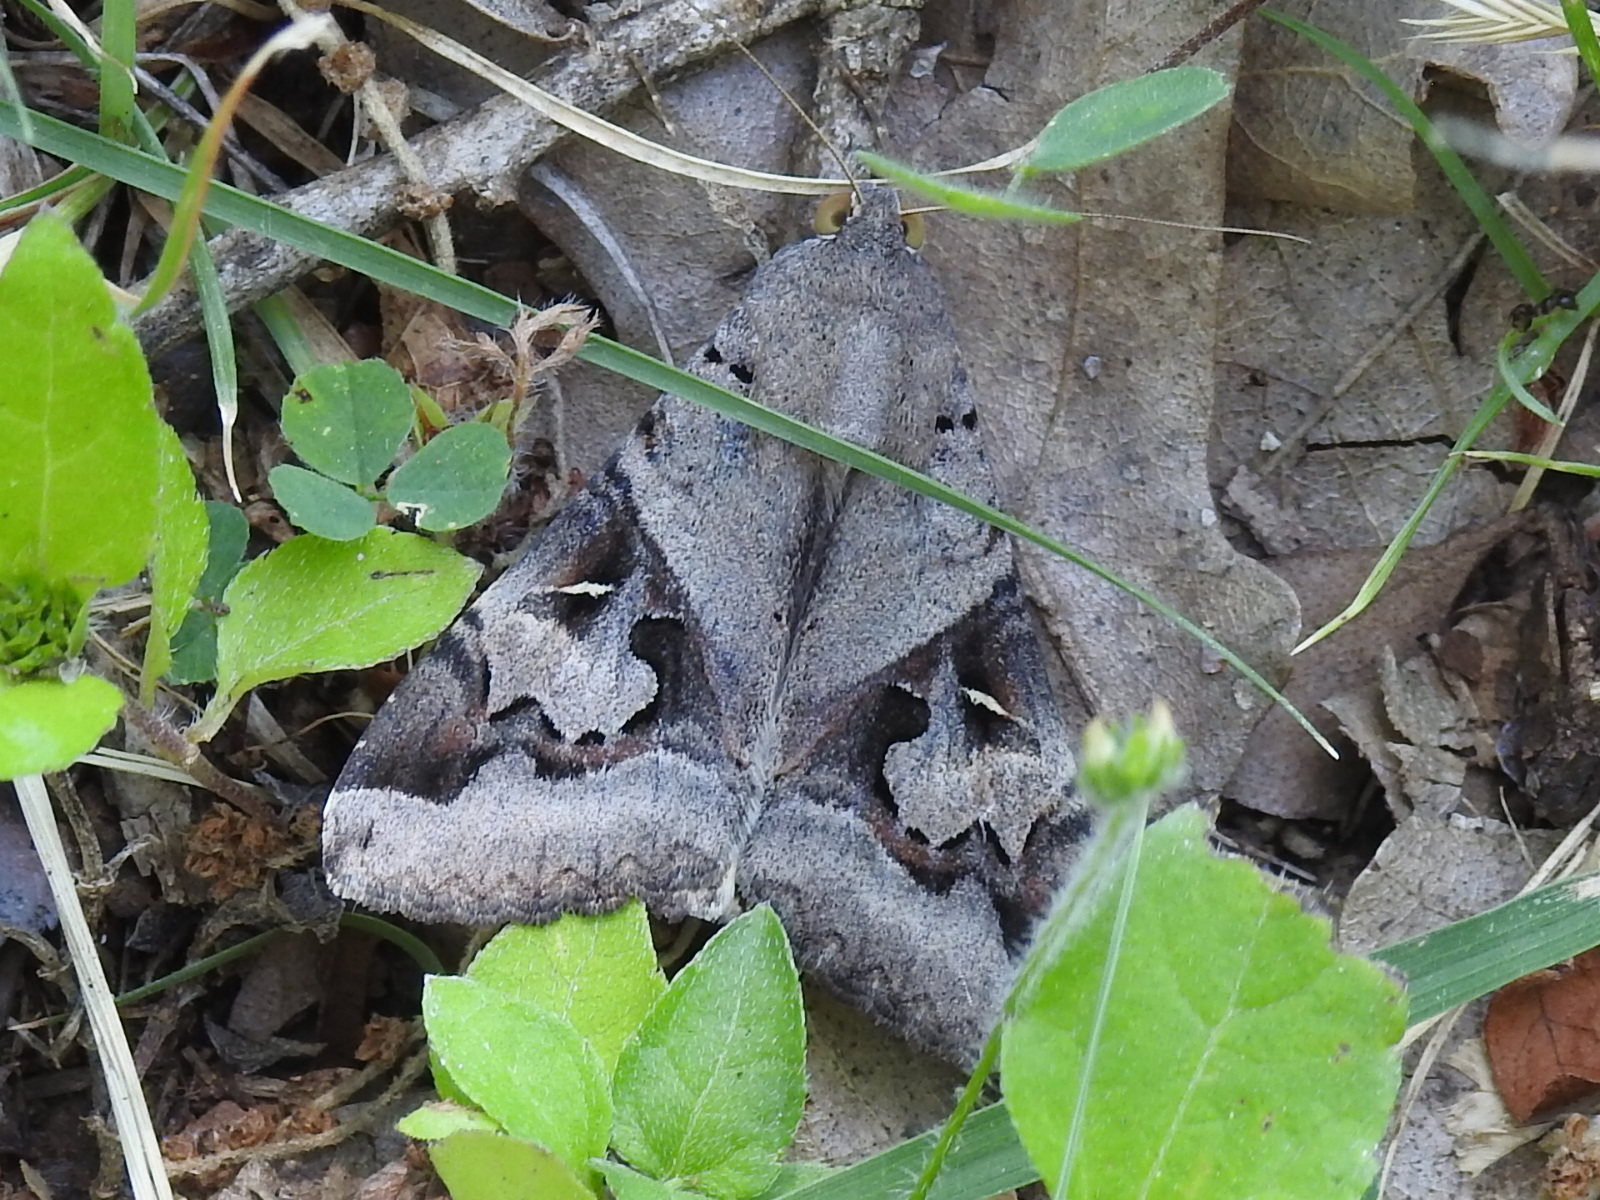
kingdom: Animalia
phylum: Arthropoda
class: Insecta
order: Lepidoptera
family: Erebidae
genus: Melipotis
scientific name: Melipotis indomita
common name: Moth
